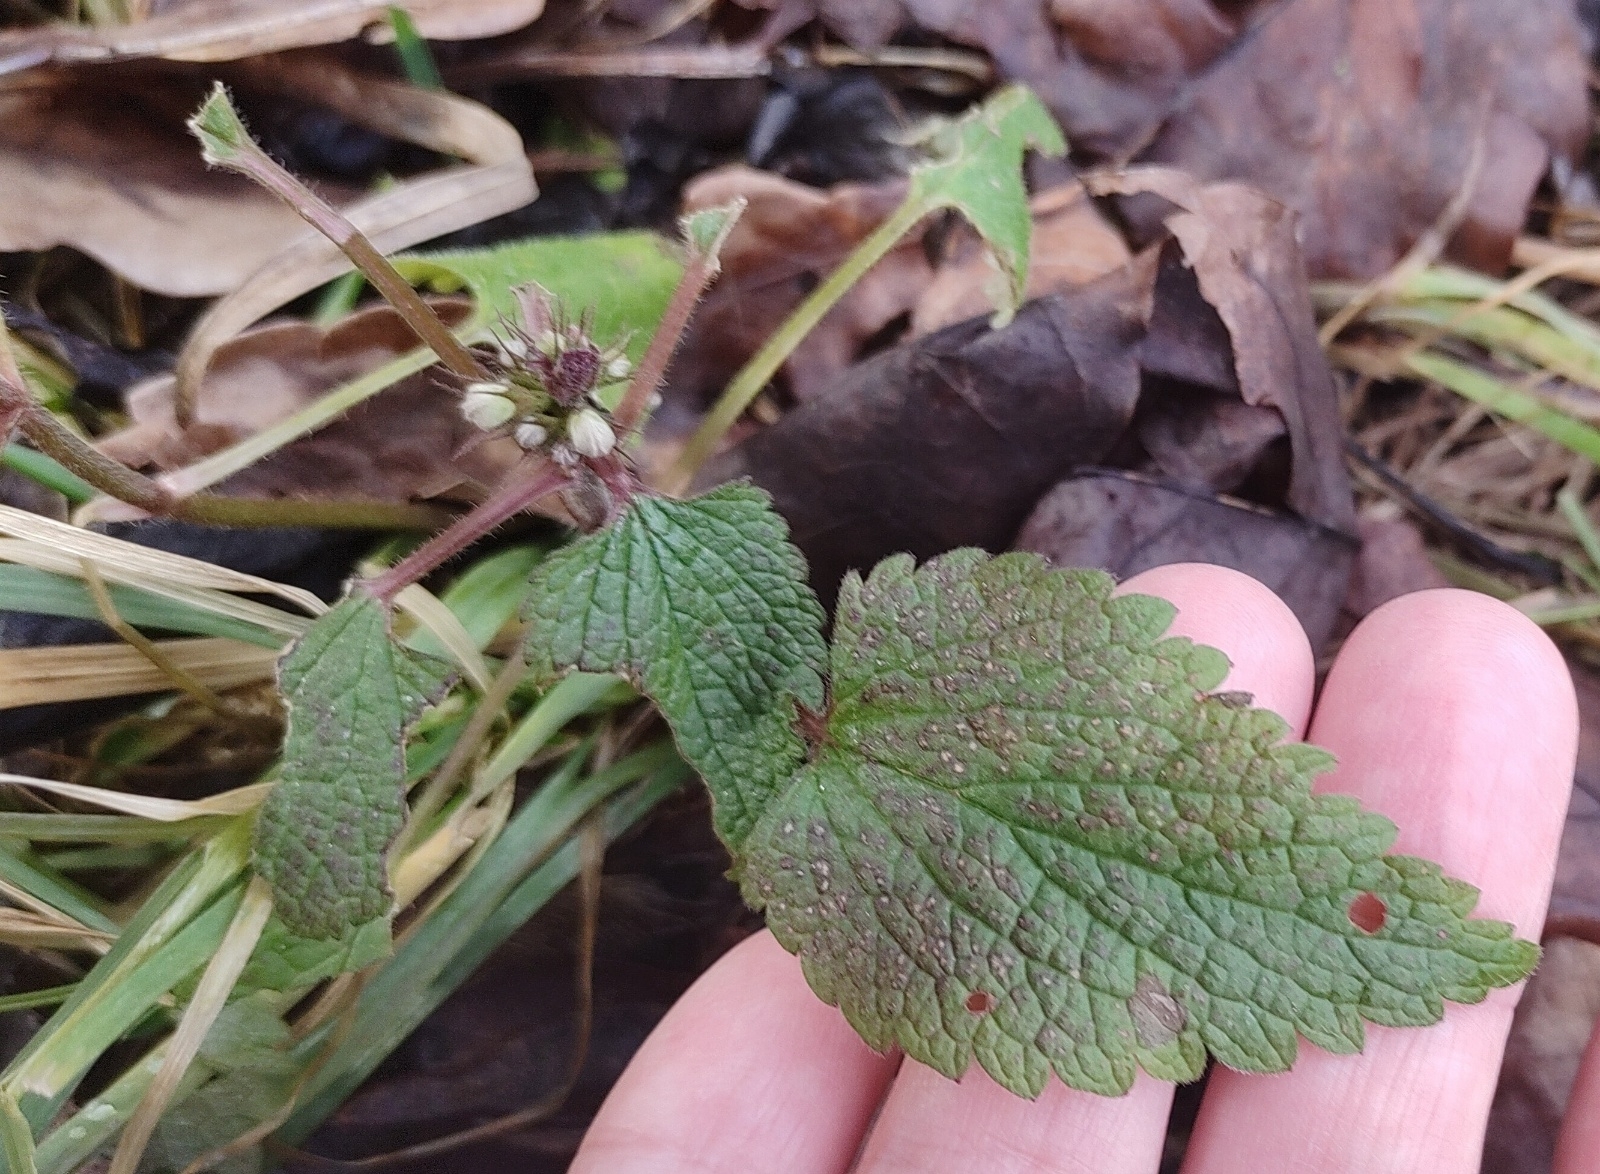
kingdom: Plantae
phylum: Tracheophyta
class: Magnoliopsida
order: Lamiales
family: Lamiaceae
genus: Lamium
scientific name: Lamium album
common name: White dead-nettle
